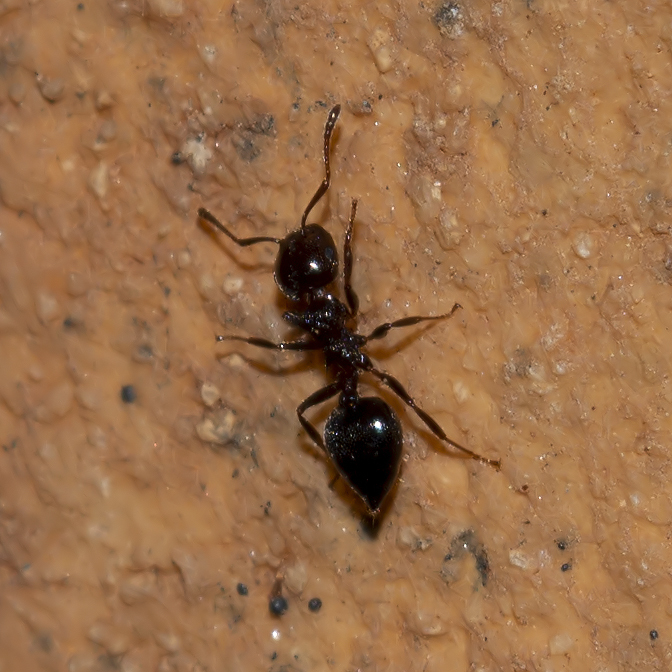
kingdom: Animalia
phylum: Arthropoda
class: Insecta
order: Hymenoptera
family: Formicidae
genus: Crematogaster
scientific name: Crematogaster ionia
